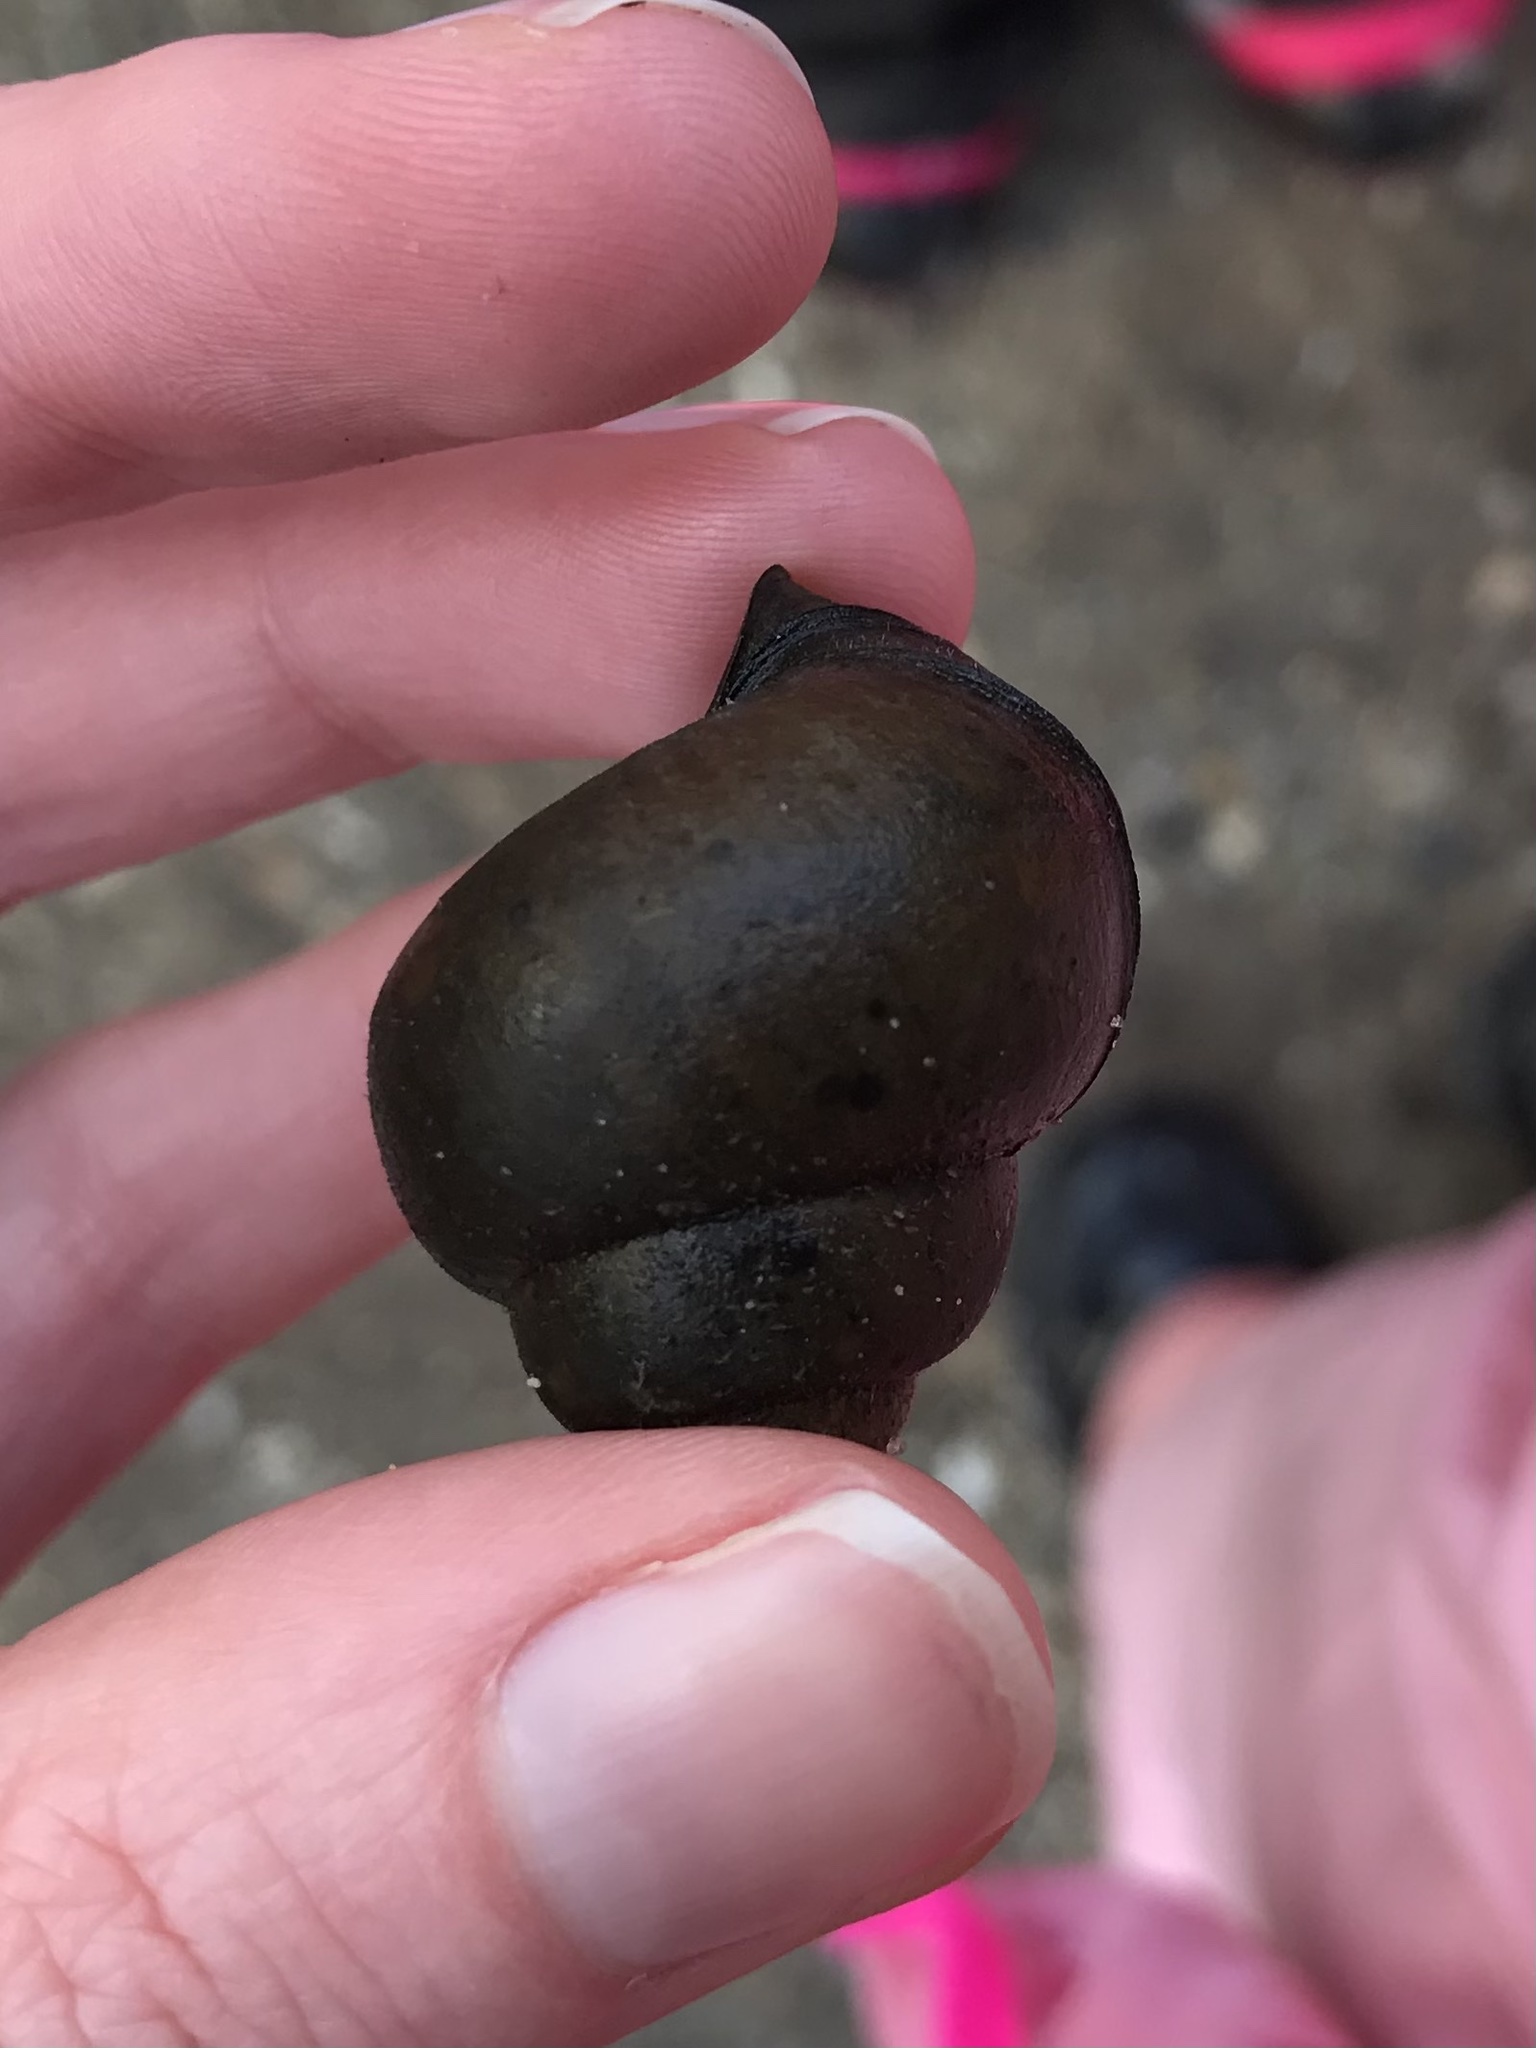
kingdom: Animalia
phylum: Mollusca
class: Gastropoda
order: Architaenioglossa
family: Viviparidae
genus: Cipangopaludina
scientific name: Cipangopaludina chinensis
